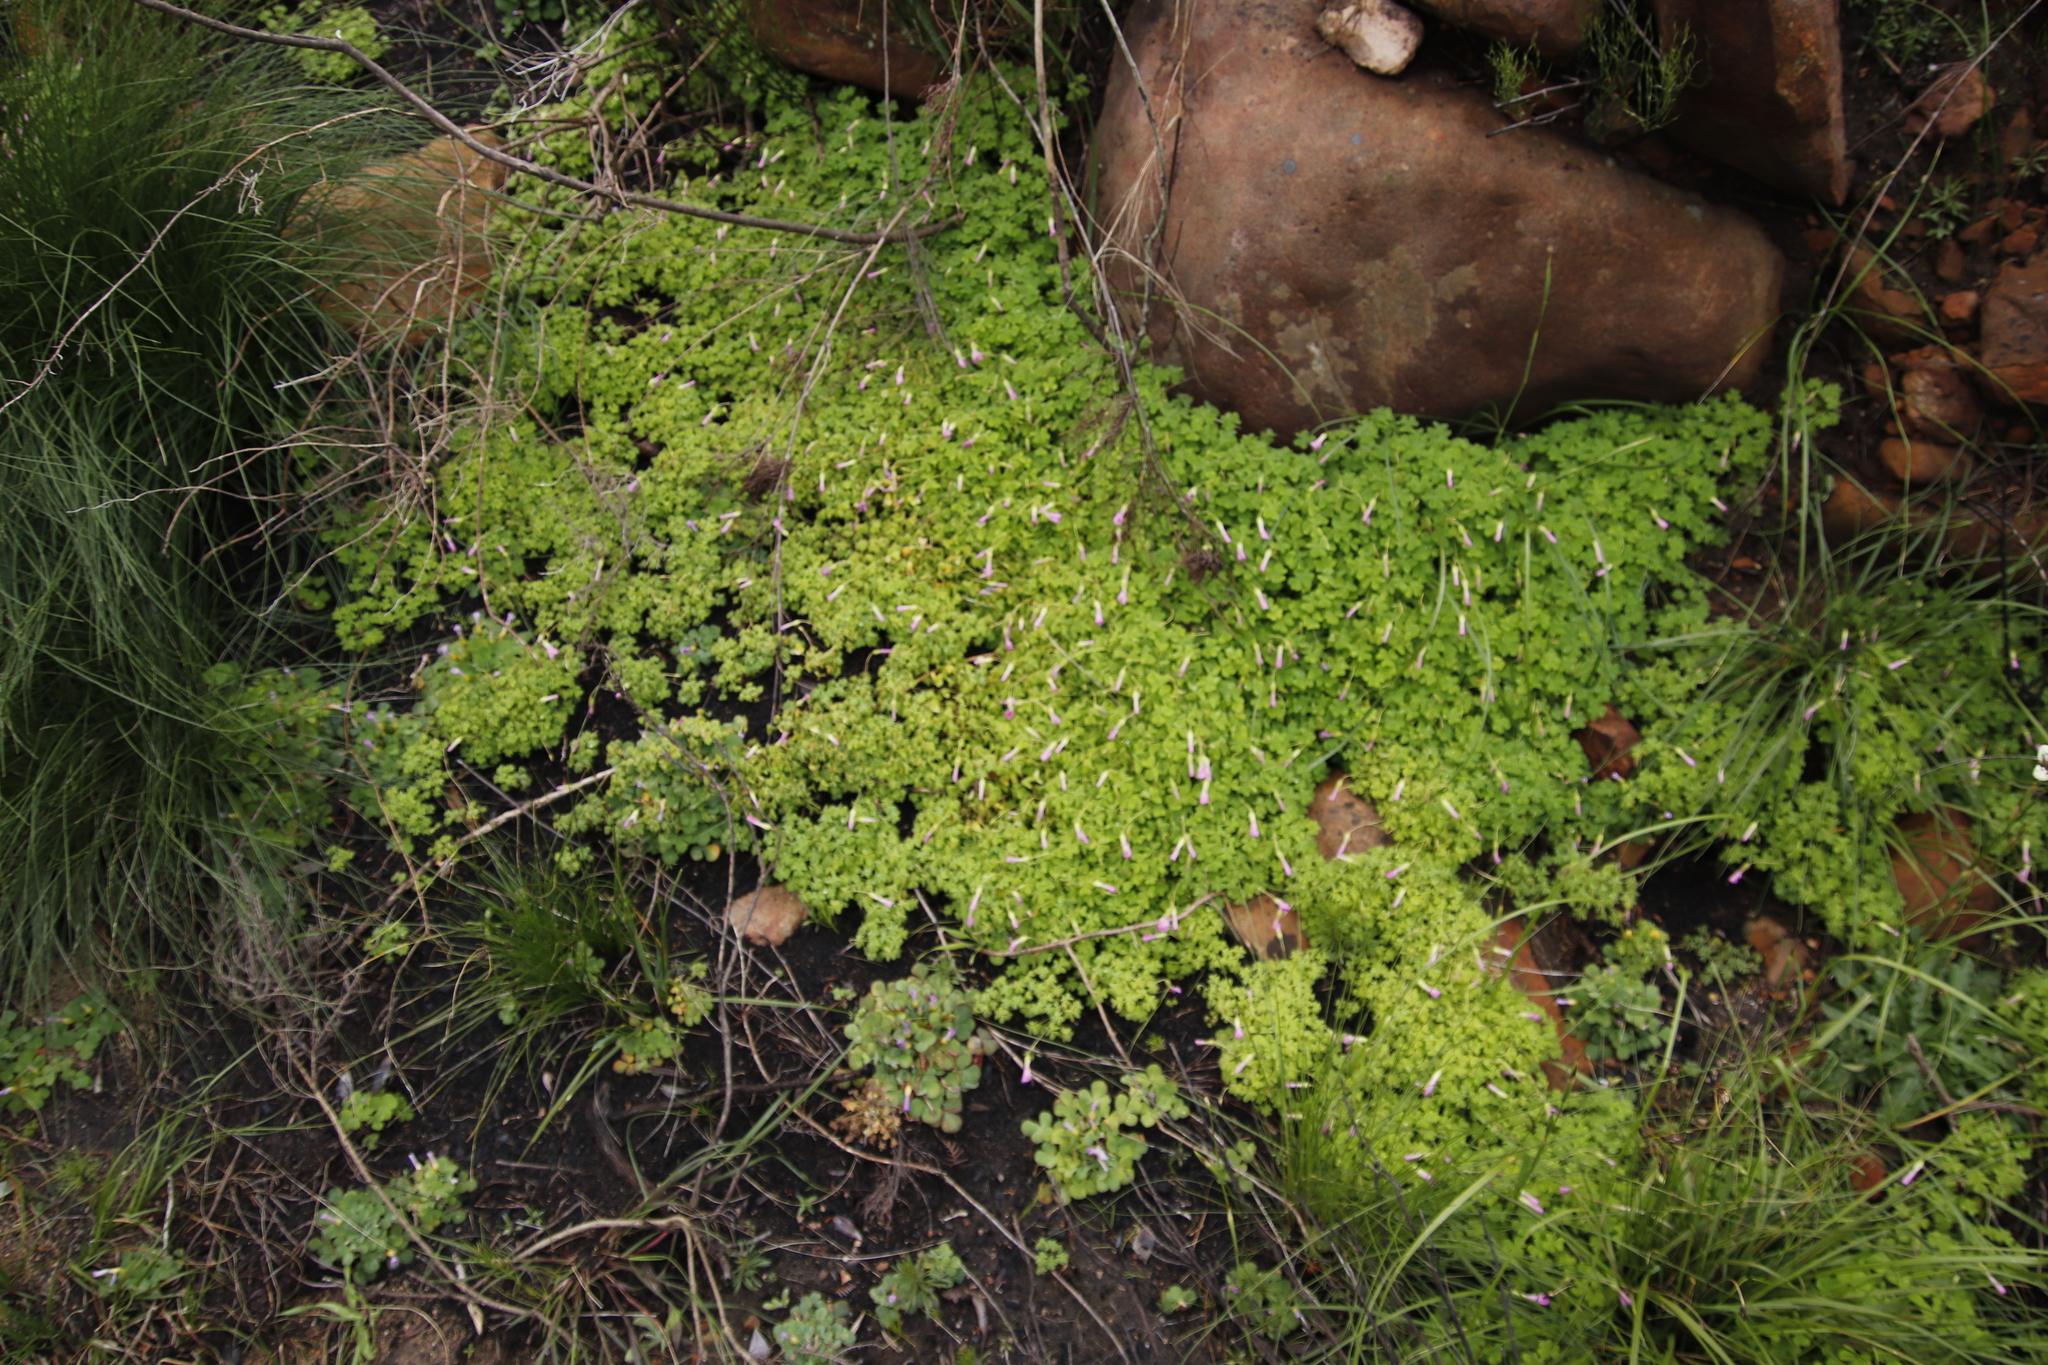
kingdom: Plantae
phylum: Tracheophyta
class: Magnoliopsida
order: Oxalidales
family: Oxalidaceae
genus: Oxalis
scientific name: Oxalis lanata
